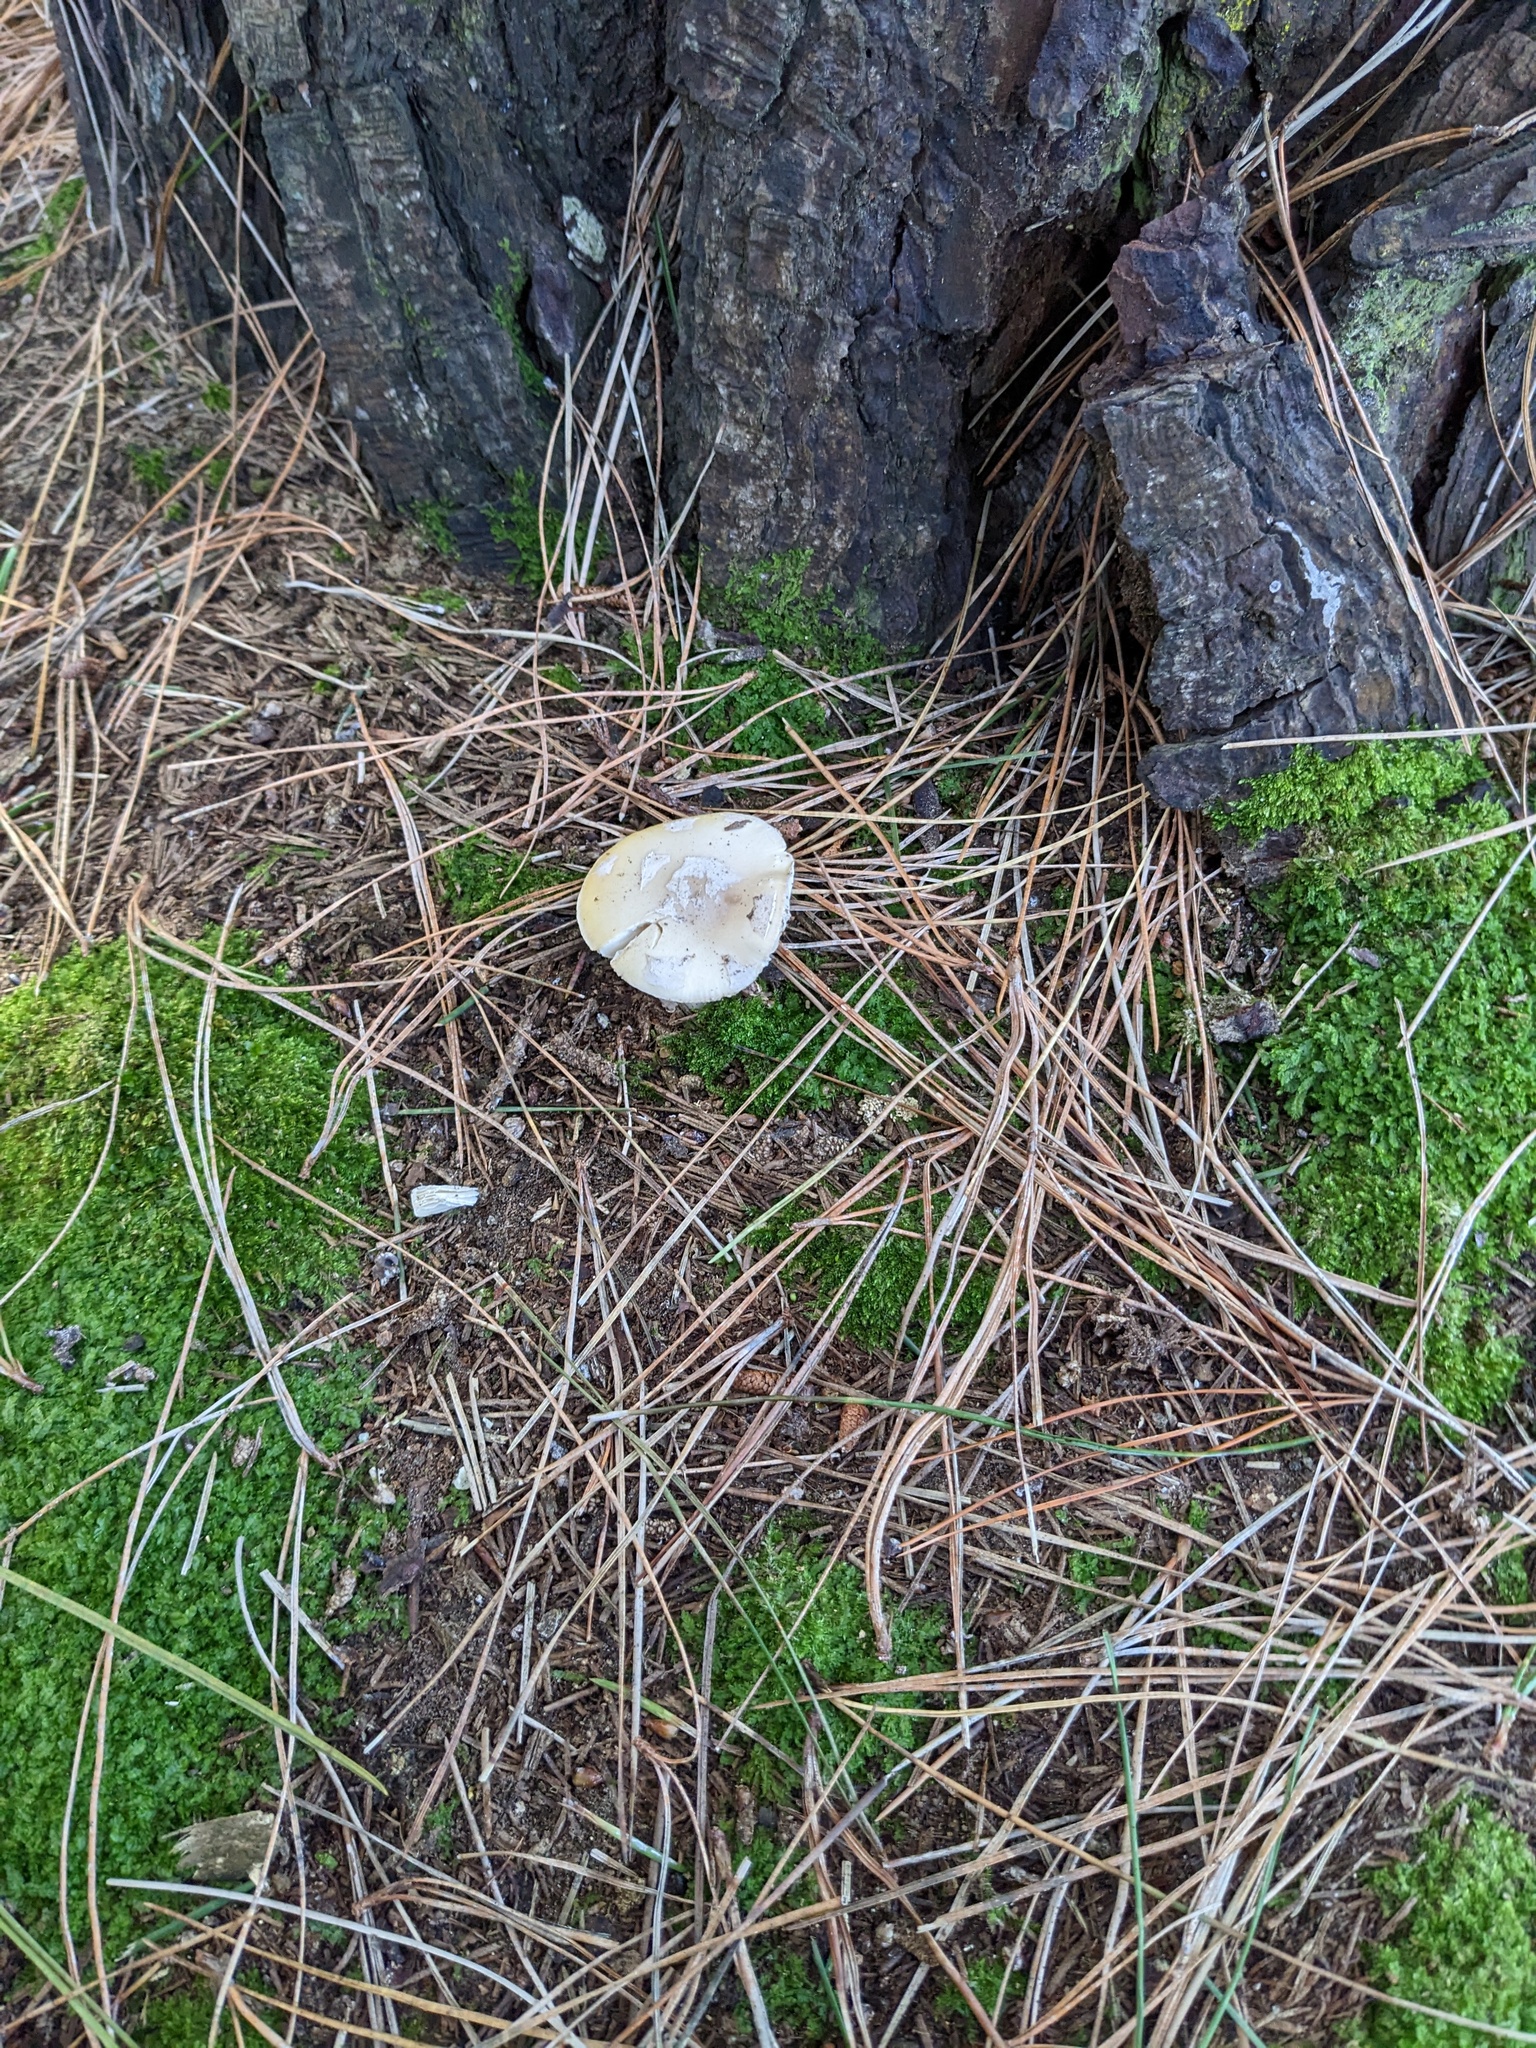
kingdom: Fungi
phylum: Basidiomycota
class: Agaricomycetes
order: Agaricales
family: Amanitaceae
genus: Amanita
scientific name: Amanita gemmata
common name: Jewelled amanita
